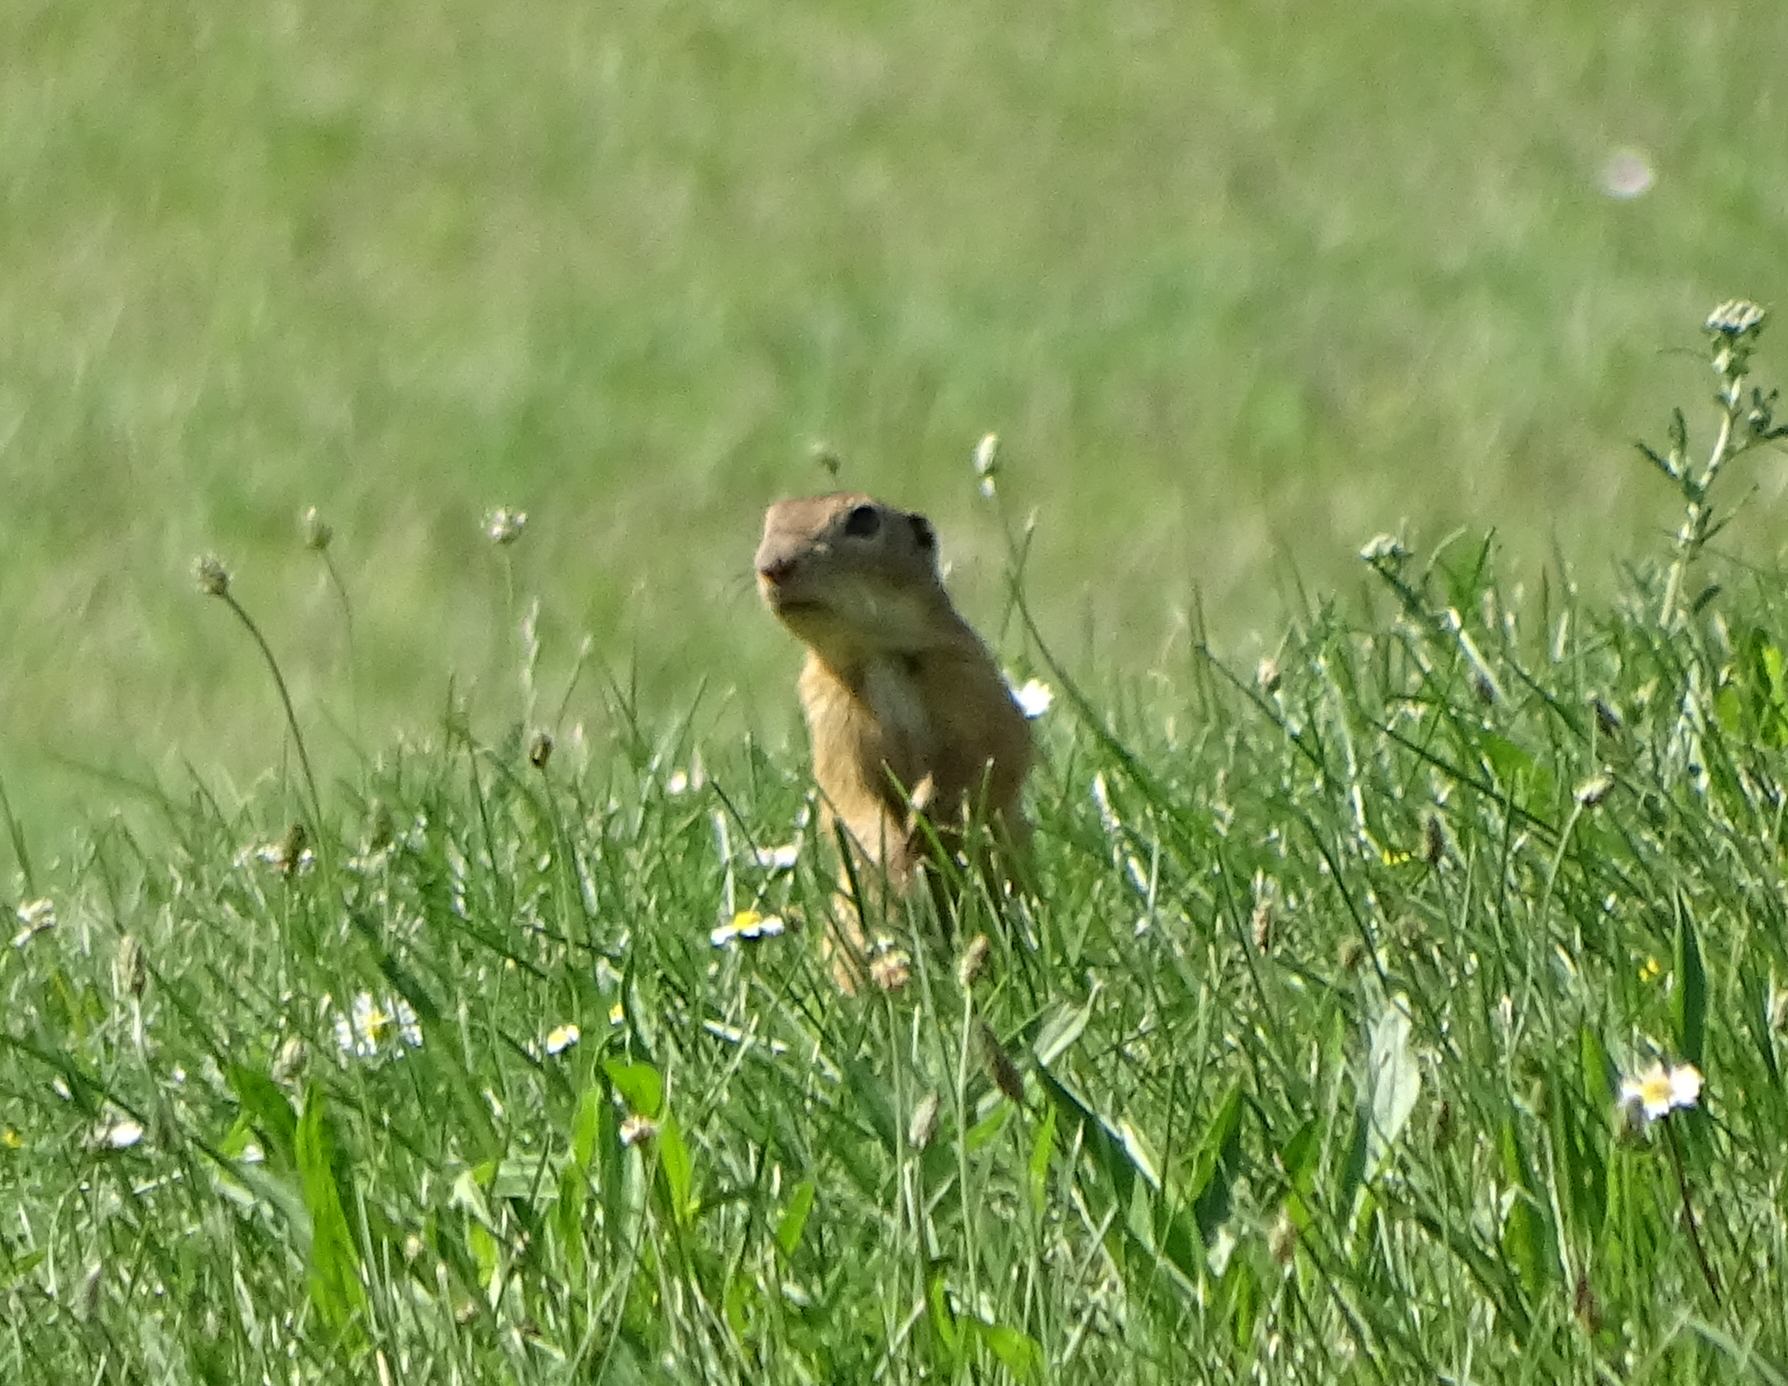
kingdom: Animalia
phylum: Chordata
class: Mammalia
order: Rodentia
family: Sciuridae
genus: Spermophilus
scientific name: Spermophilus citellus
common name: European ground squirrel
